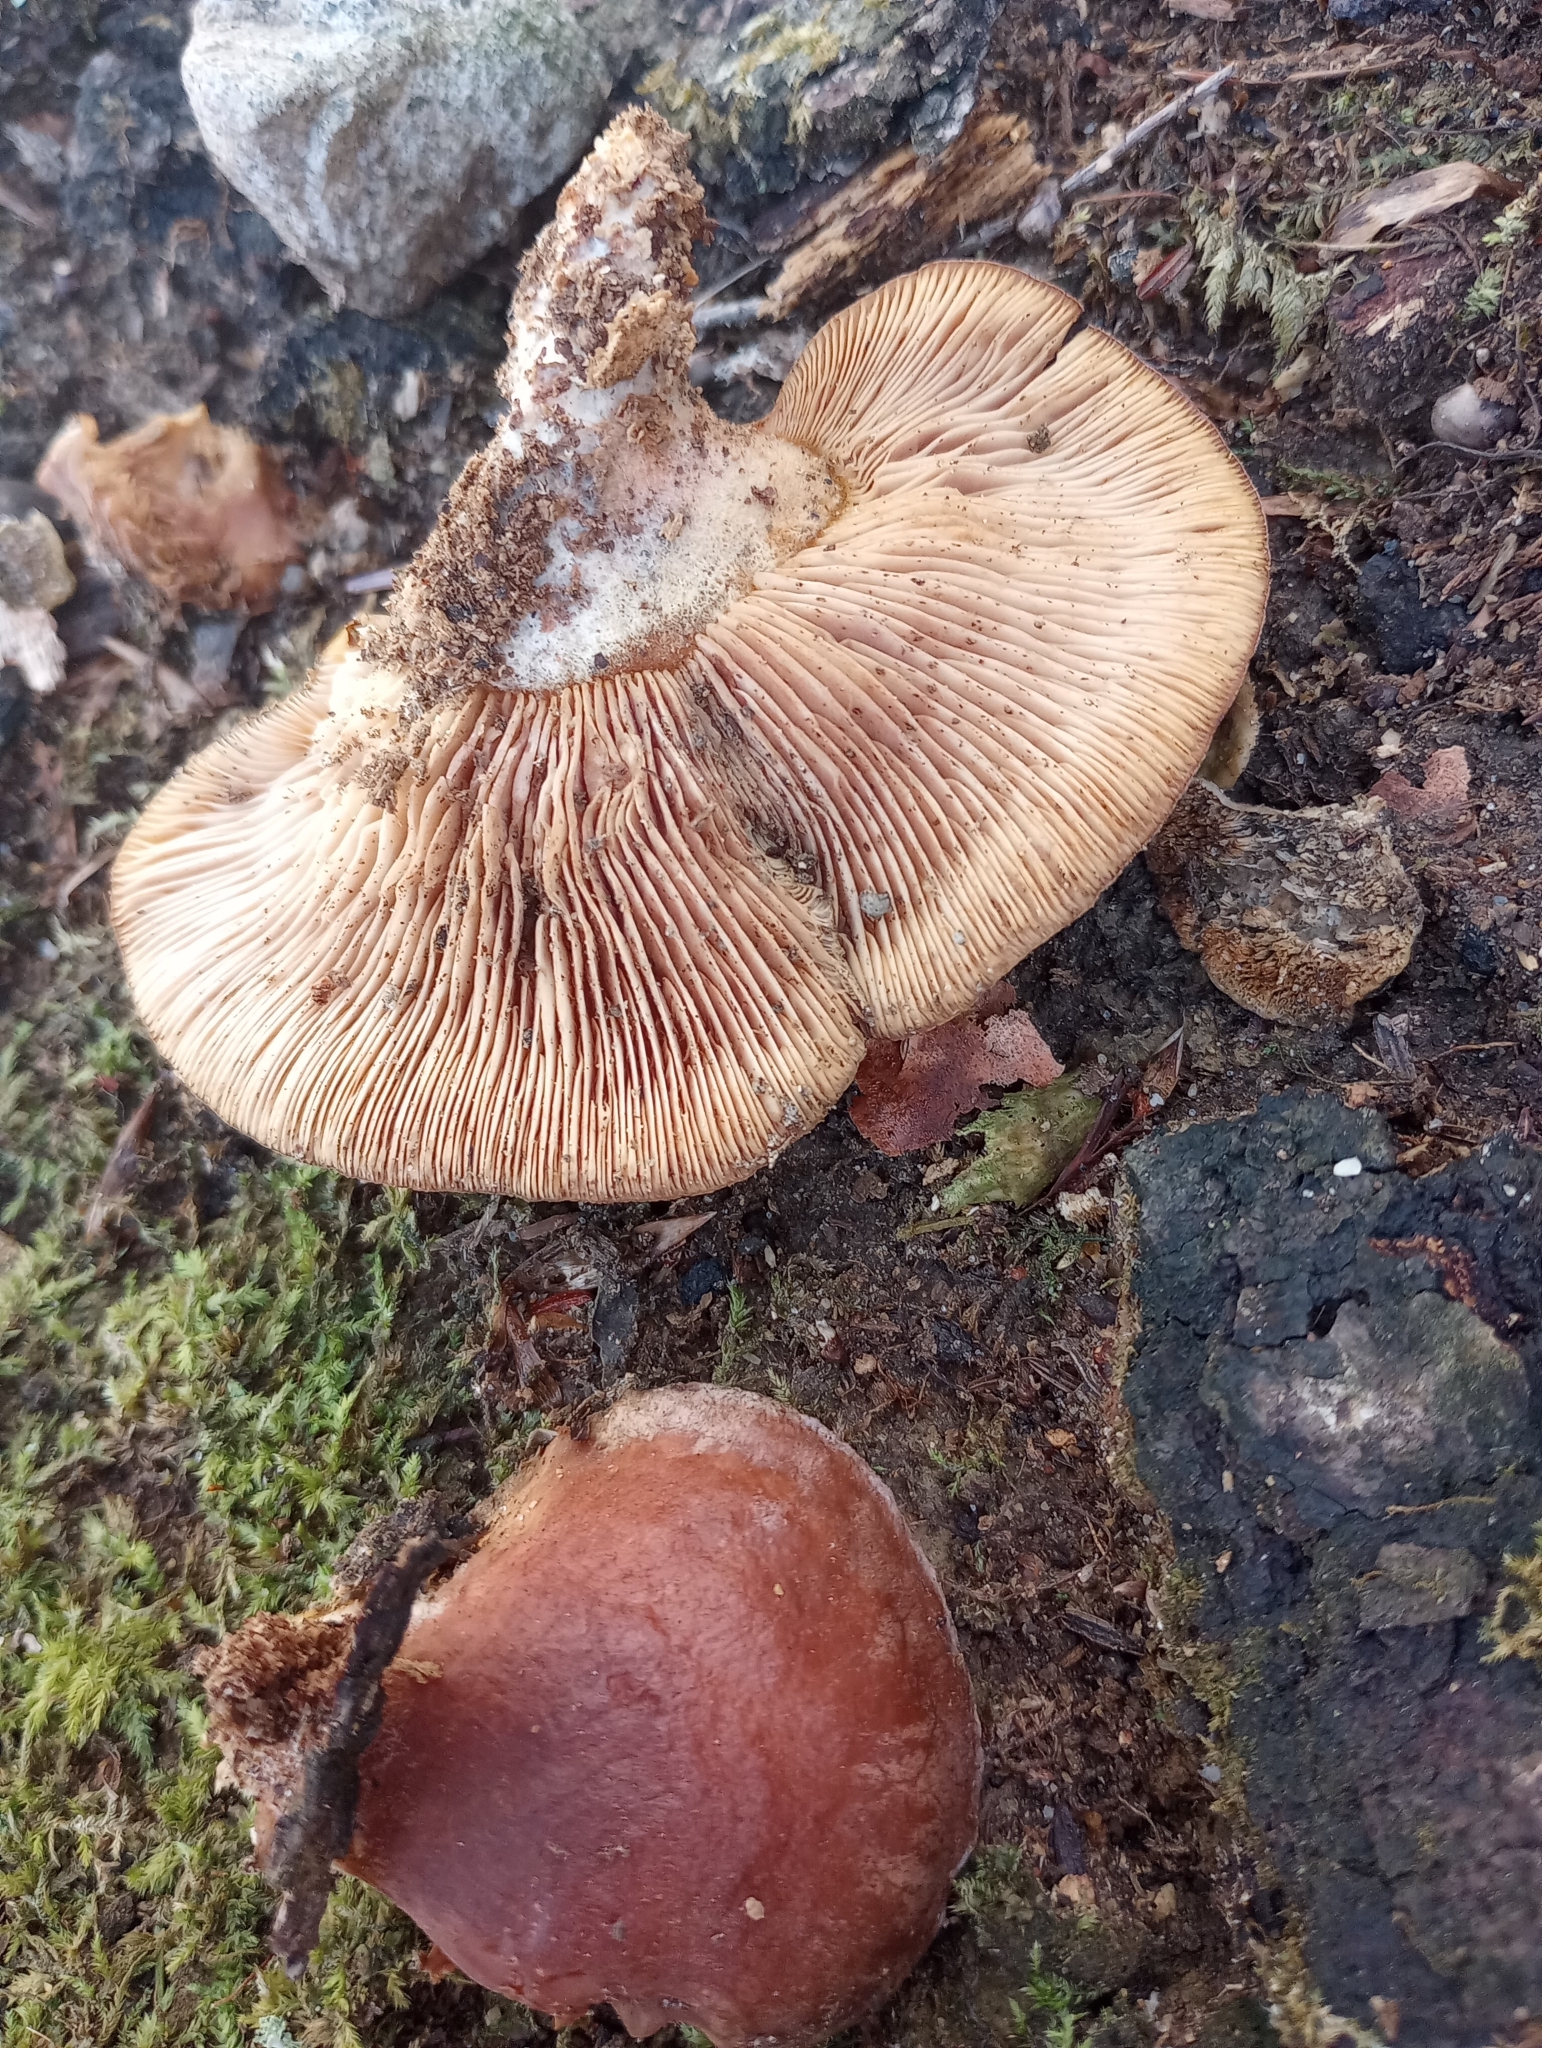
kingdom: Fungi
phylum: Basidiomycota
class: Agaricomycetes
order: Agaricales
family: Sarcomyxaceae
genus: Sarcomyxa
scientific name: Sarcomyxa serotina
